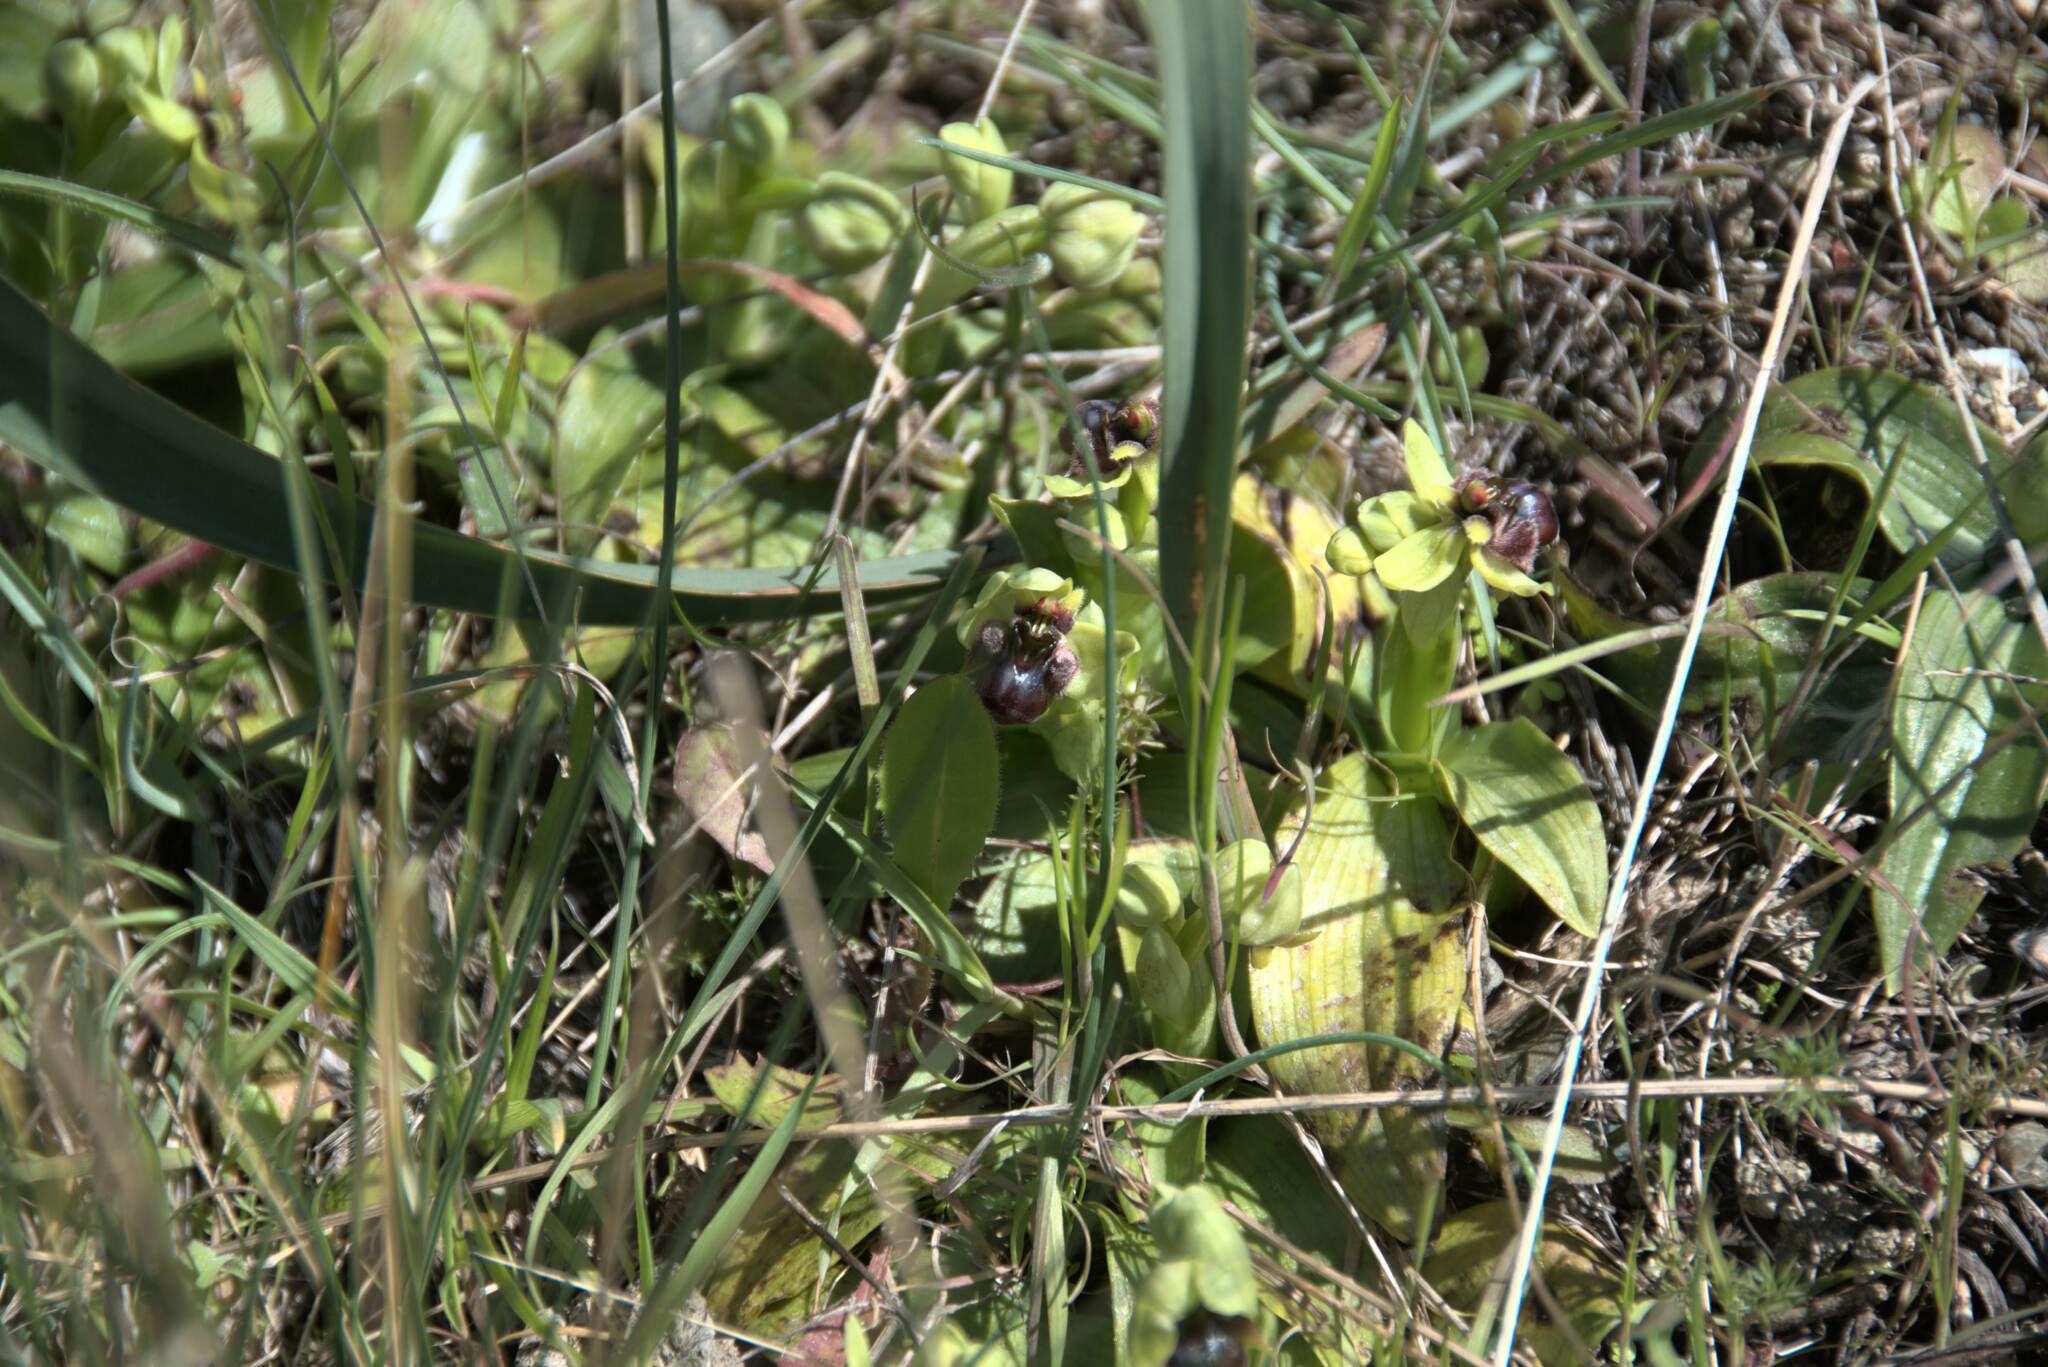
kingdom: Plantae
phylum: Tracheophyta
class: Liliopsida
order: Asparagales
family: Orchidaceae
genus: Ophrys
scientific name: Ophrys bombyliflora
